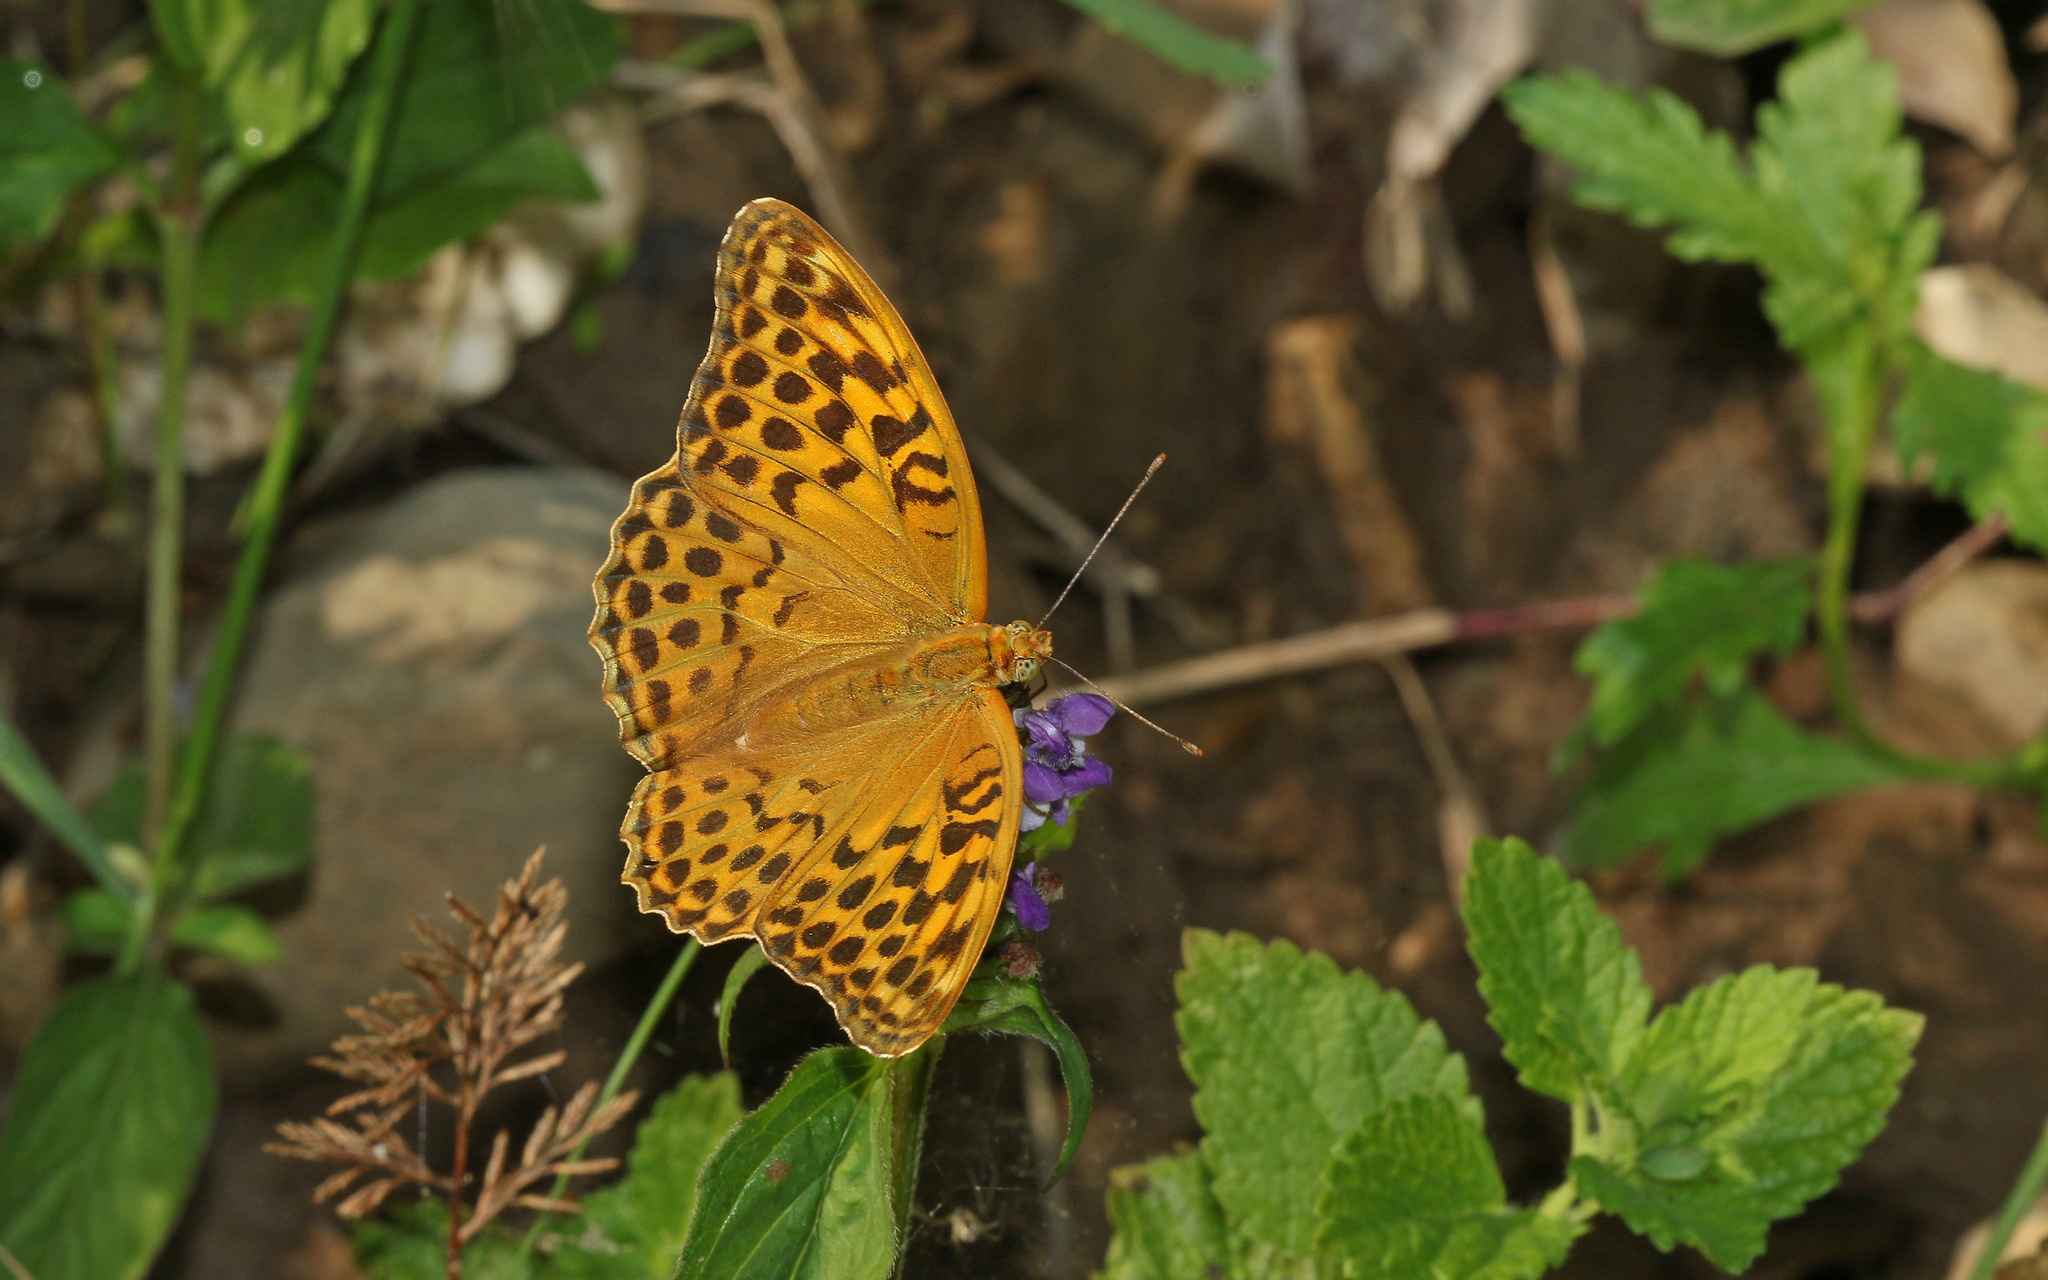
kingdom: Animalia
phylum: Arthropoda
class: Insecta
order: Lepidoptera
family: Nymphalidae
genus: Argynnis
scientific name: Argynnis paphia
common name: Silver-washed fritillary
